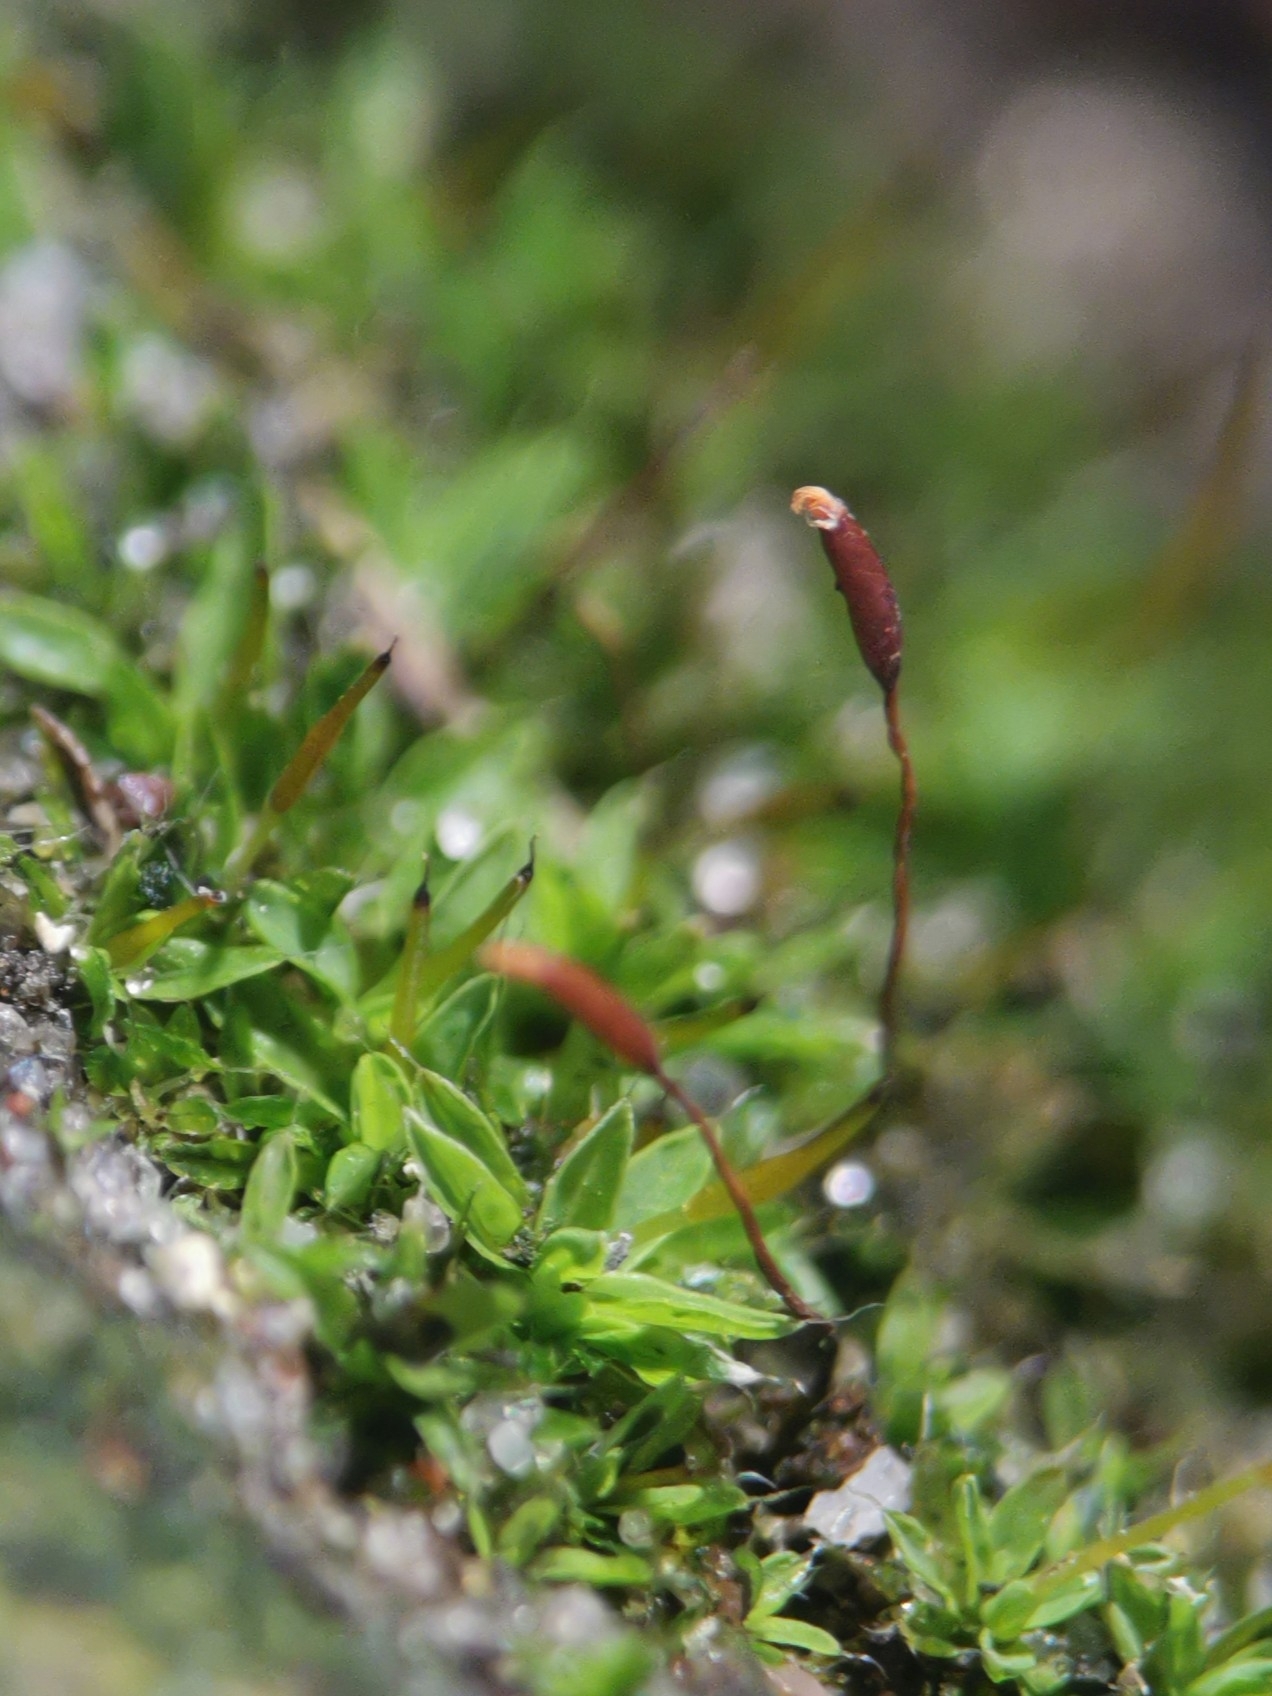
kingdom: Plantae
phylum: Bryophyta
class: Bryopsida
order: Pottiales
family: Pottiaceae
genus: Tortula
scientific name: Tortula muralis
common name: Wall screw-moss
